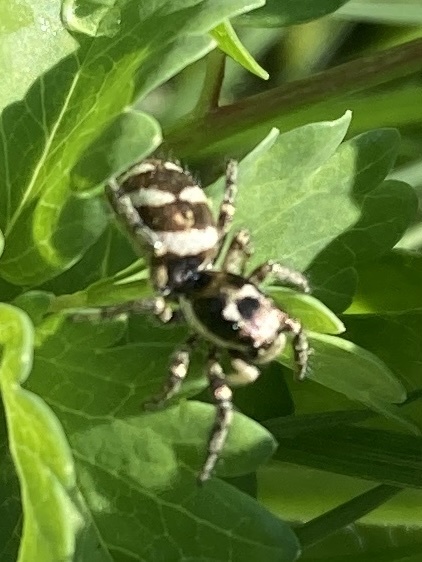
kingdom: Animalia
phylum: Arthropoda
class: Arachnida
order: Araneae
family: Salticidae
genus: Salticus
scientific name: Salticus scenicus
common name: Zebra jumper
